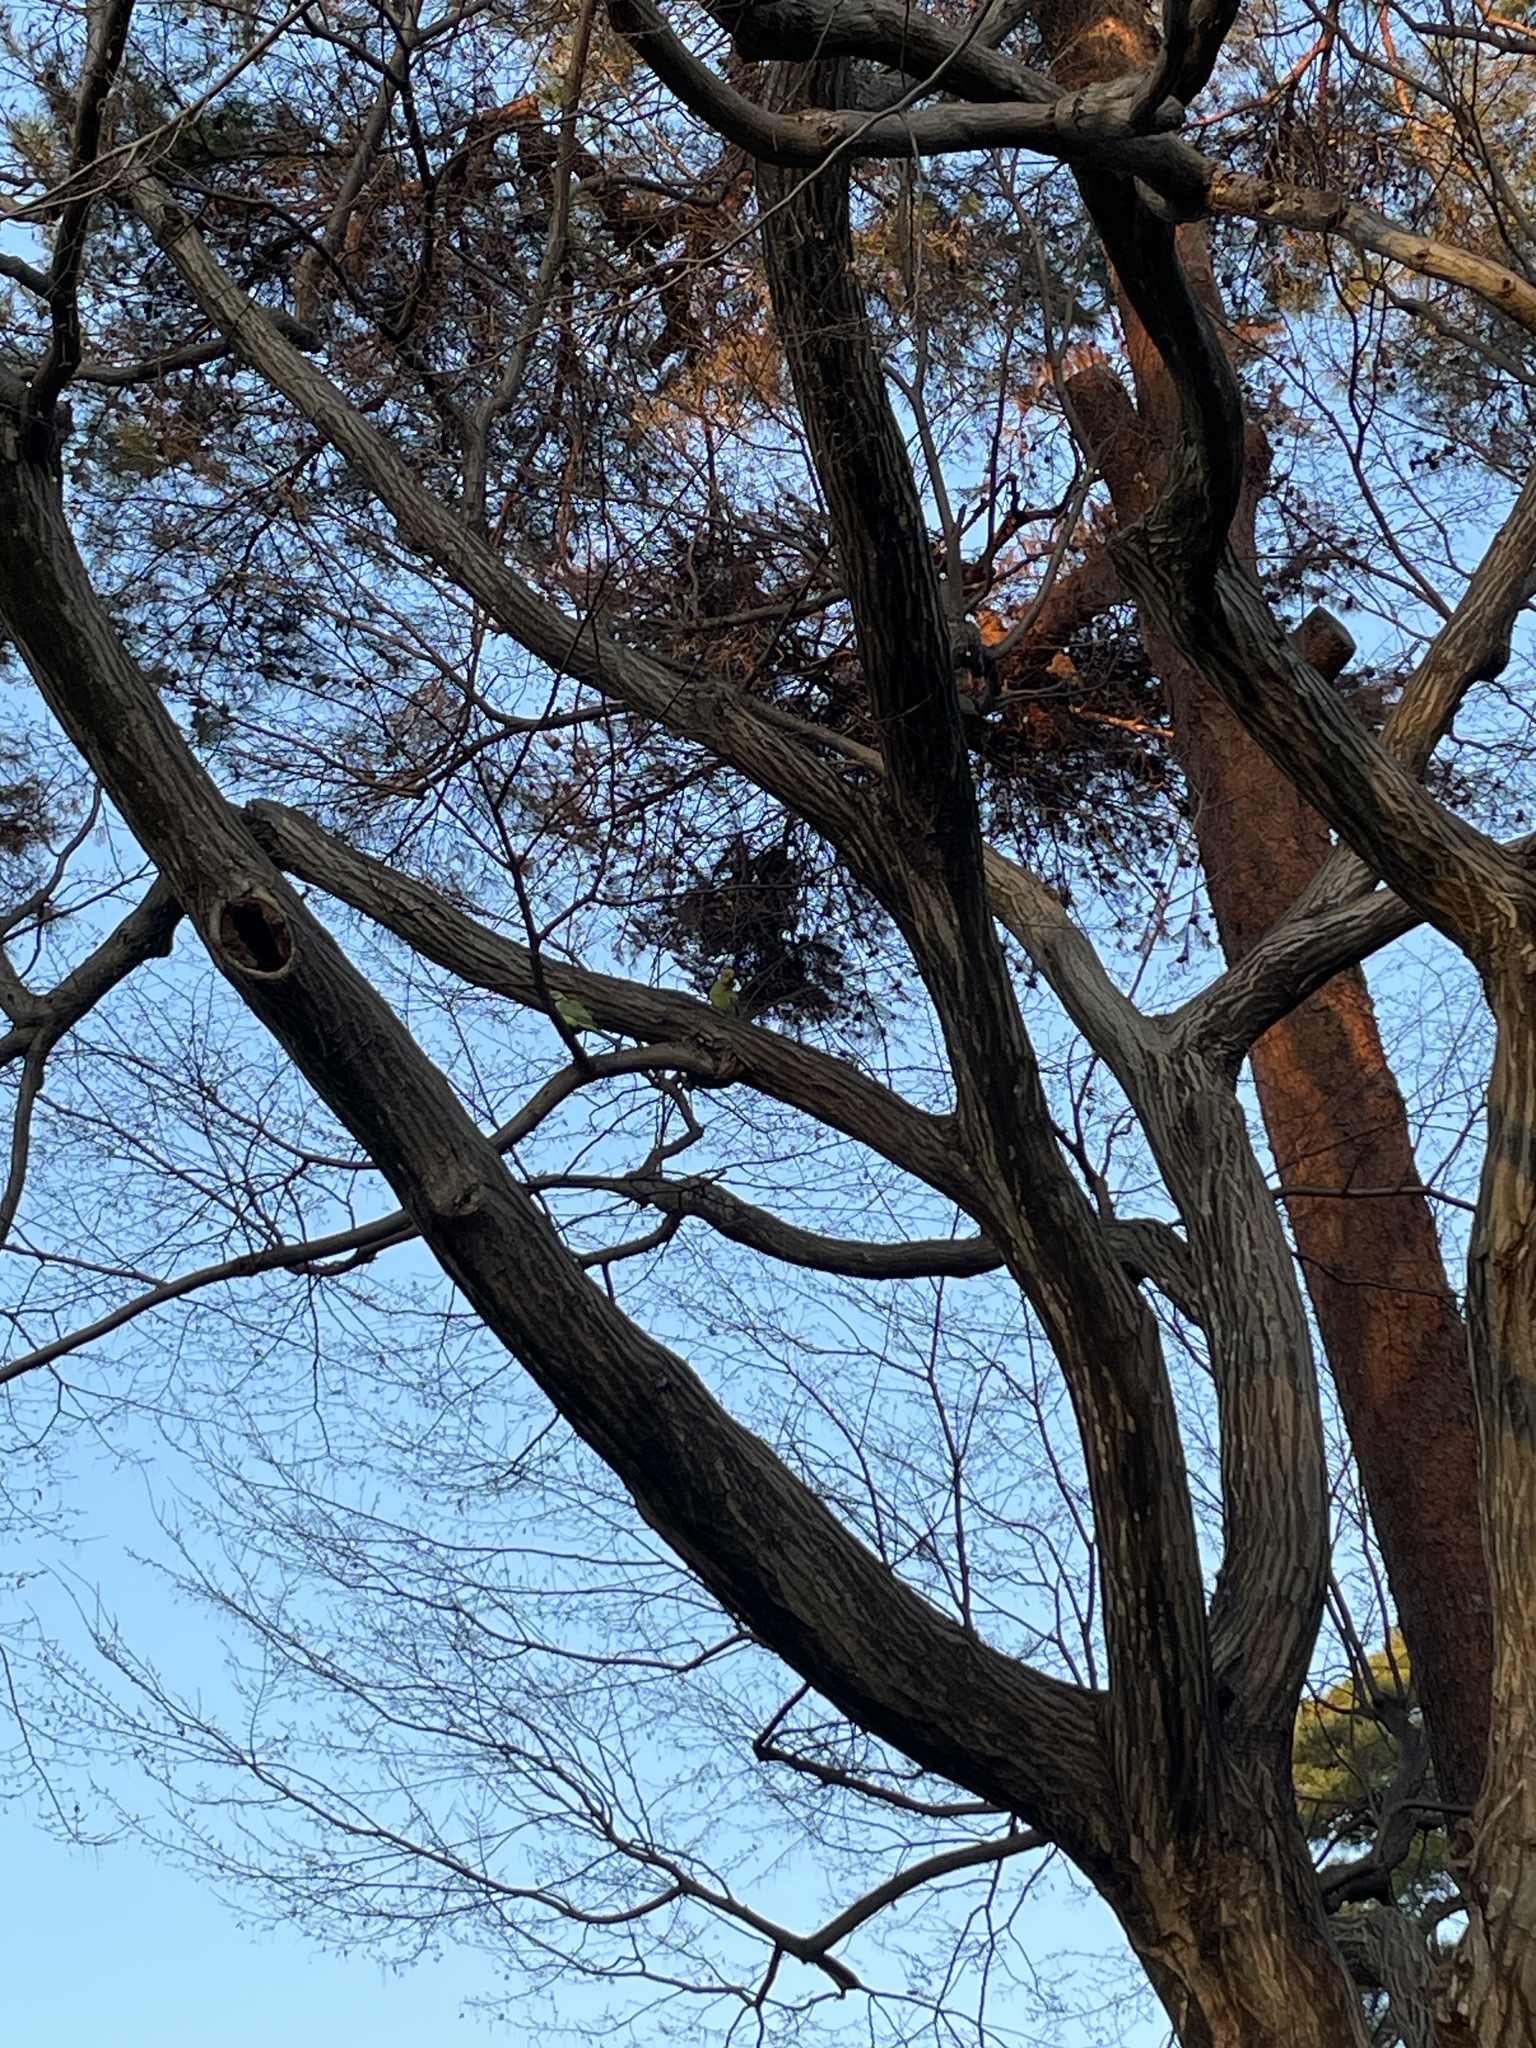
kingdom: Animalia
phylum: Chordata
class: Aves
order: Psittaciformes
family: Psittacidae
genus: Psittacula
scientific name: Psittacula krameri
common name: Rose-ringed parakeet
